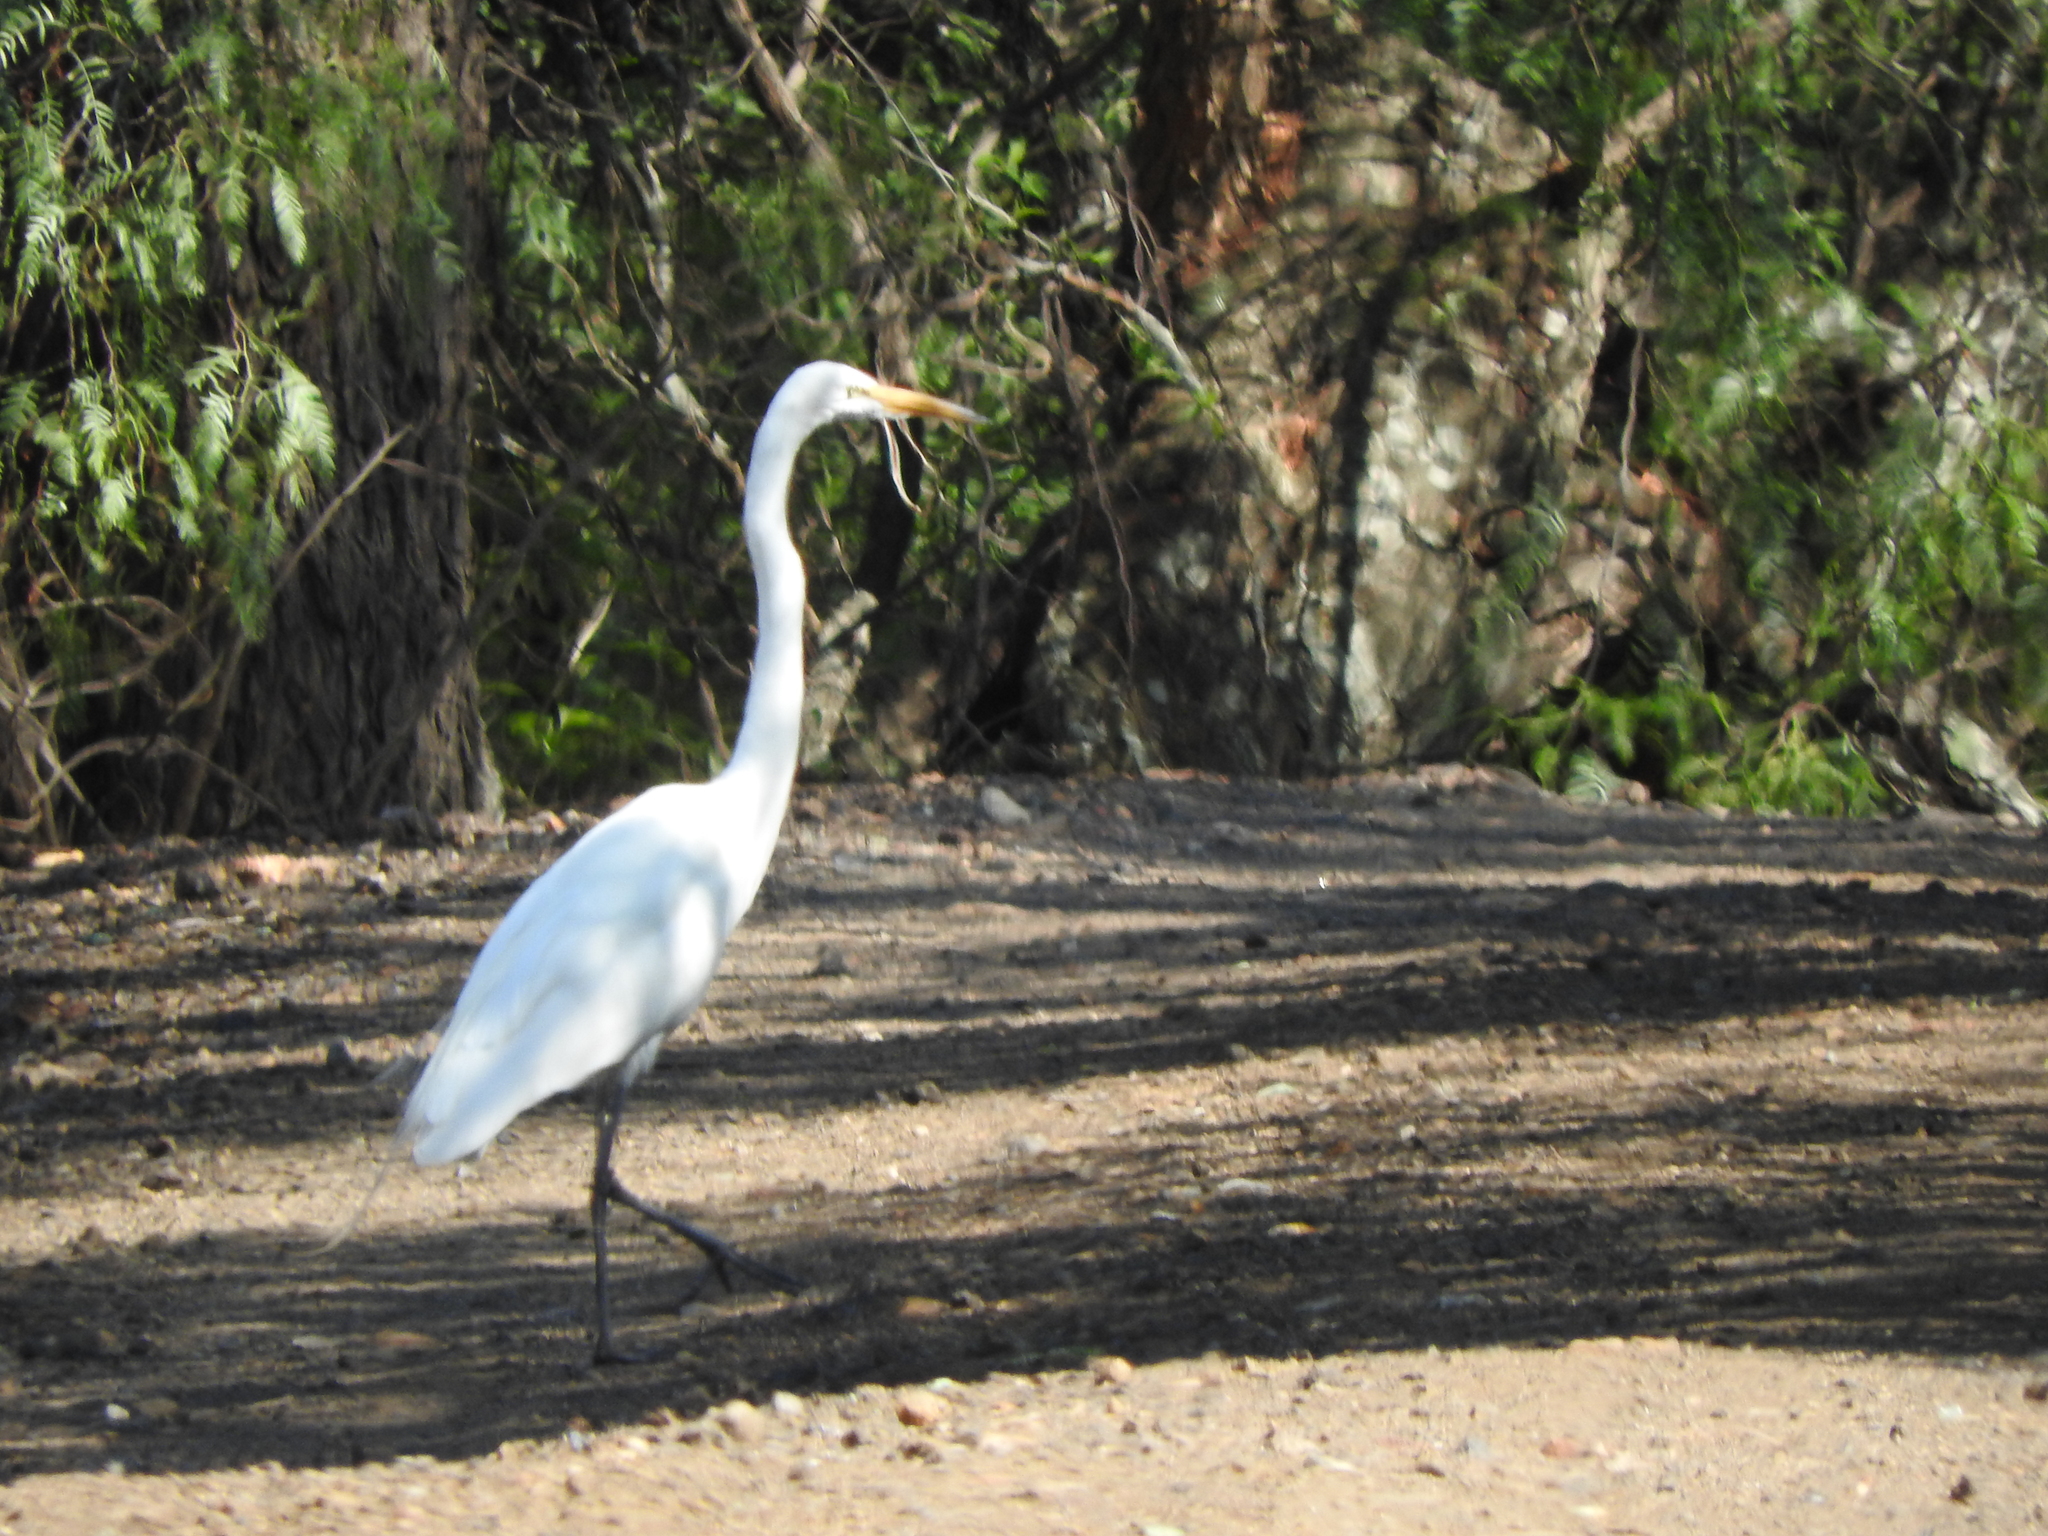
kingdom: Animalia
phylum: Chordata
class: Aves
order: Pelecaniformes
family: Ardeidae
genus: Ardea
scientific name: Ardea alba
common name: Great egret
